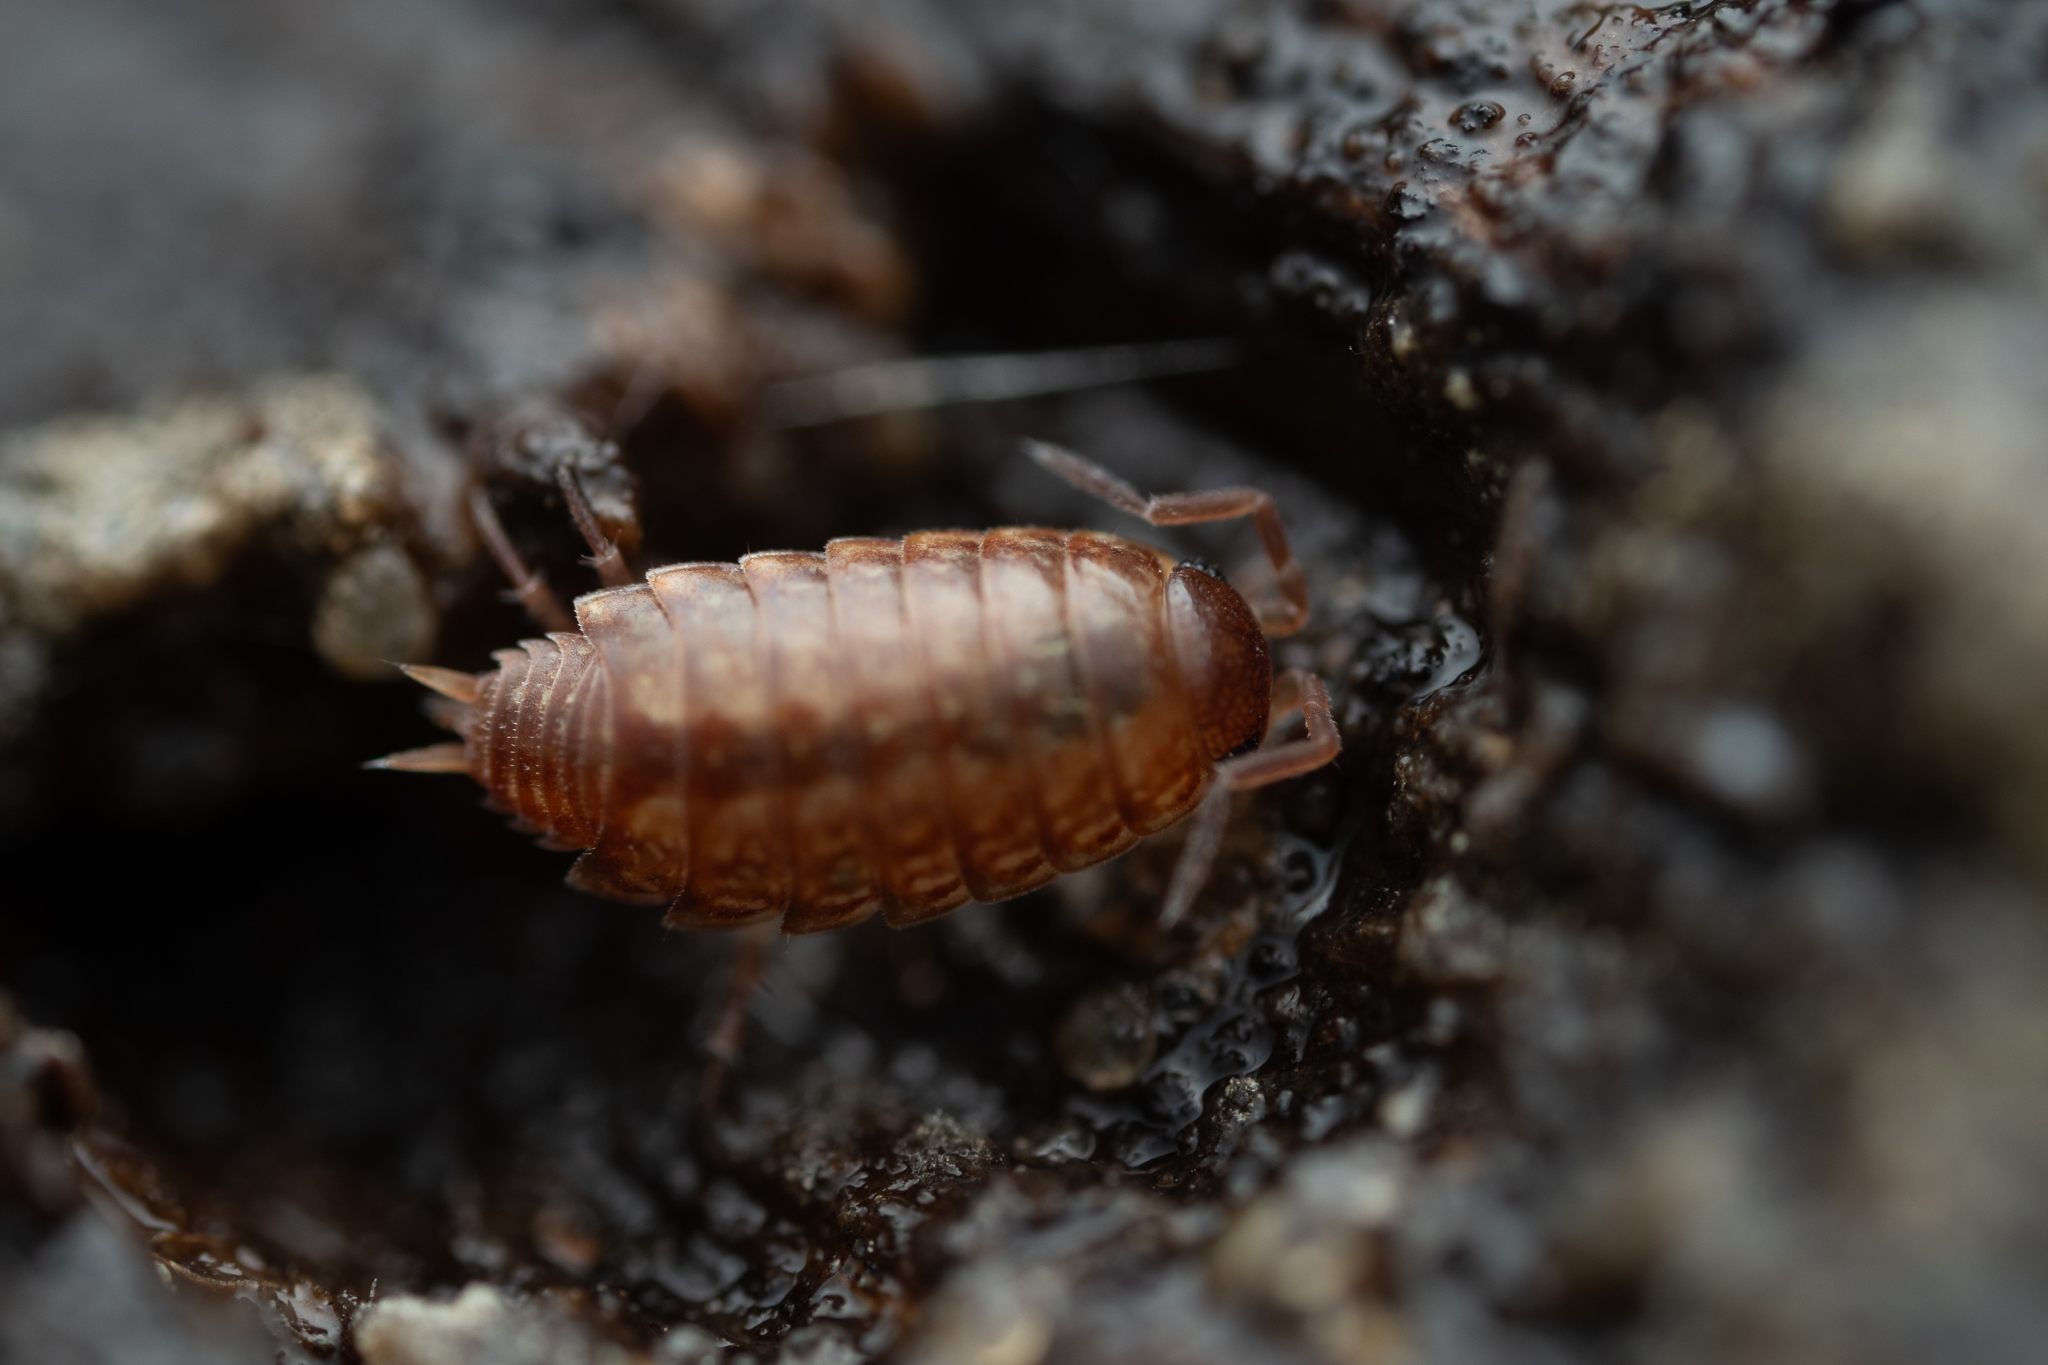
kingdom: Animalia
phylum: Arthropoda
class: Malacostraca
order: Isopoda
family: Philosciidae
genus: Philoscia
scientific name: Philoscia muscorum
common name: Common striped woodlouse
